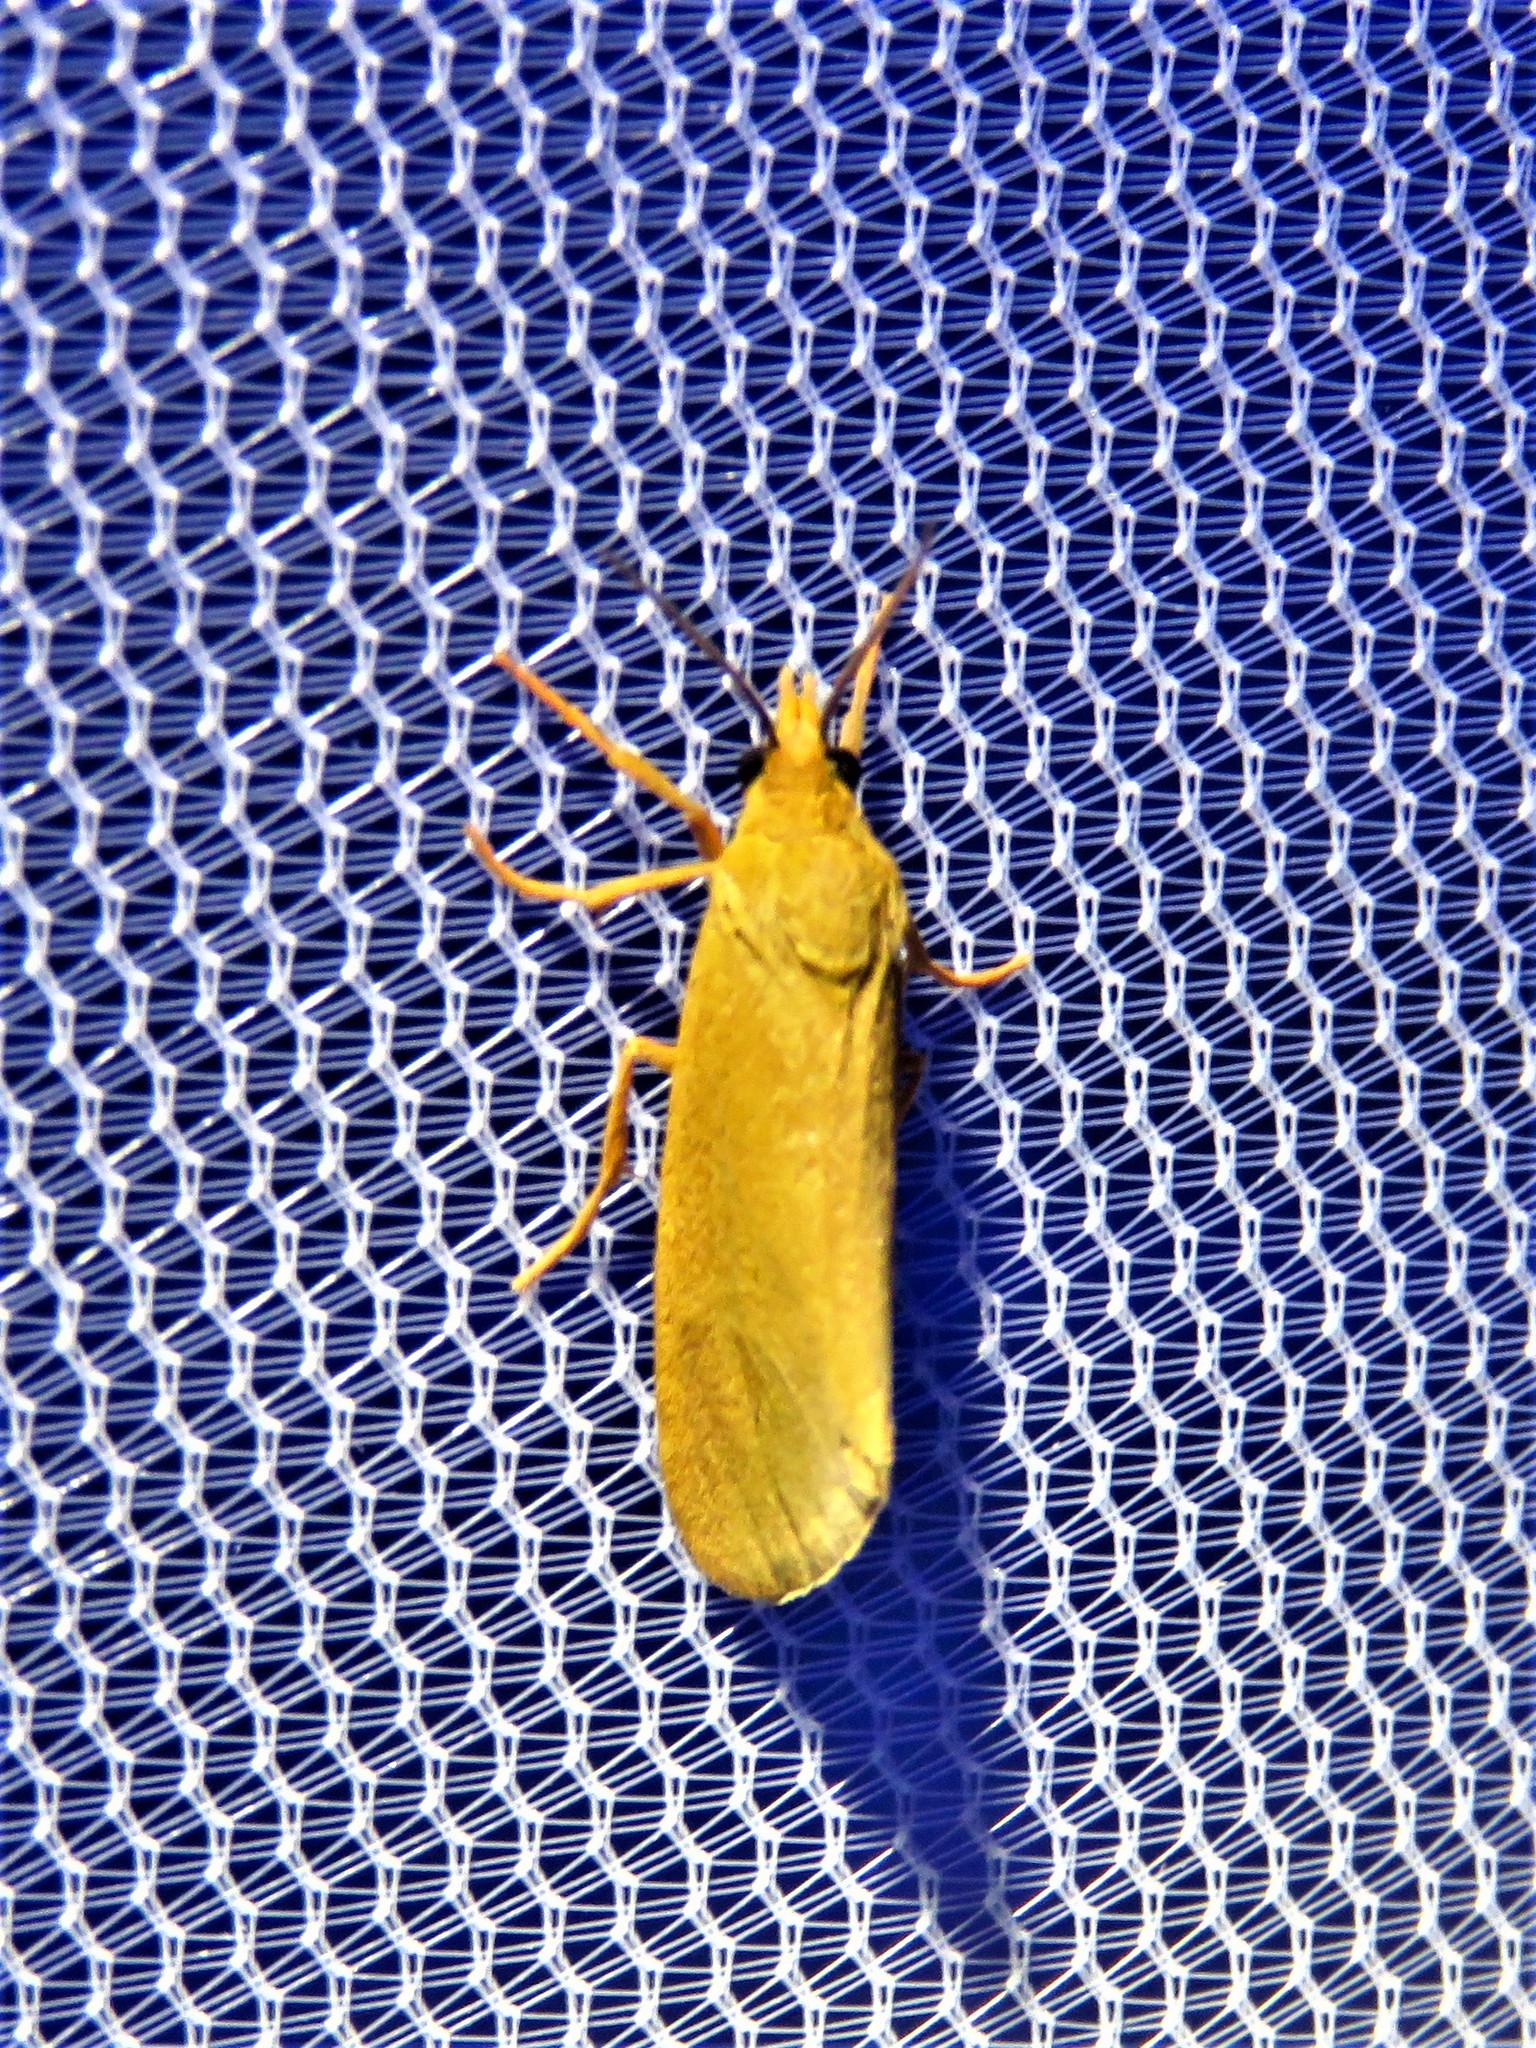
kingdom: Animalia
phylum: Arthropoda
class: Insecta
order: Lepidoptera
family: Erebidae
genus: Virbia
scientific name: Virbia aurantiaca
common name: Orange virbia moth
